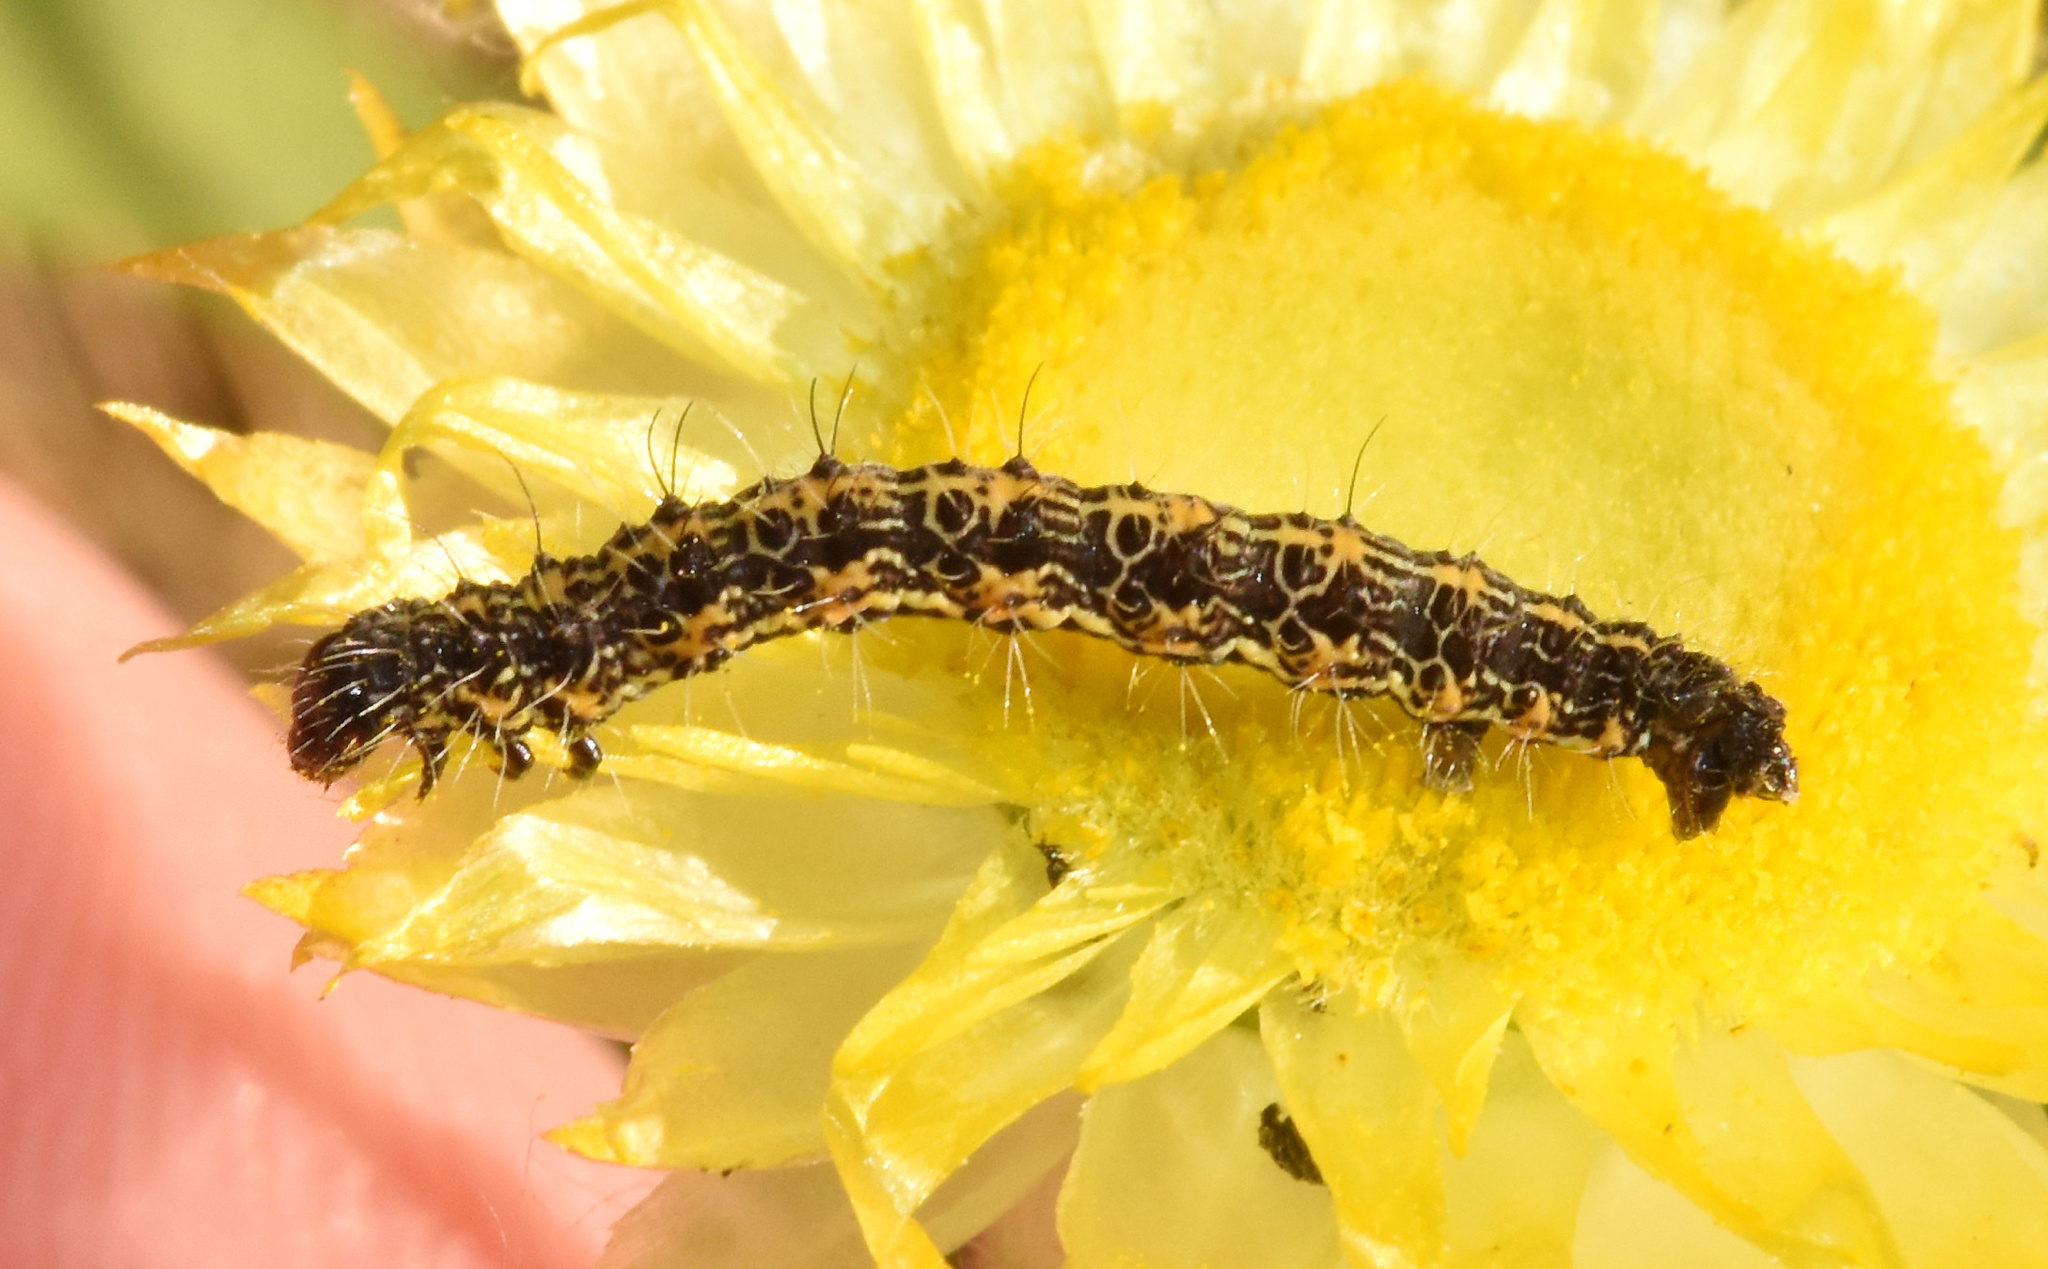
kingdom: Animalia
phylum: Arthropoda
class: Insecta
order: Lepidoptera
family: Geometridae
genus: Durbana
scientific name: Durbana setinata
